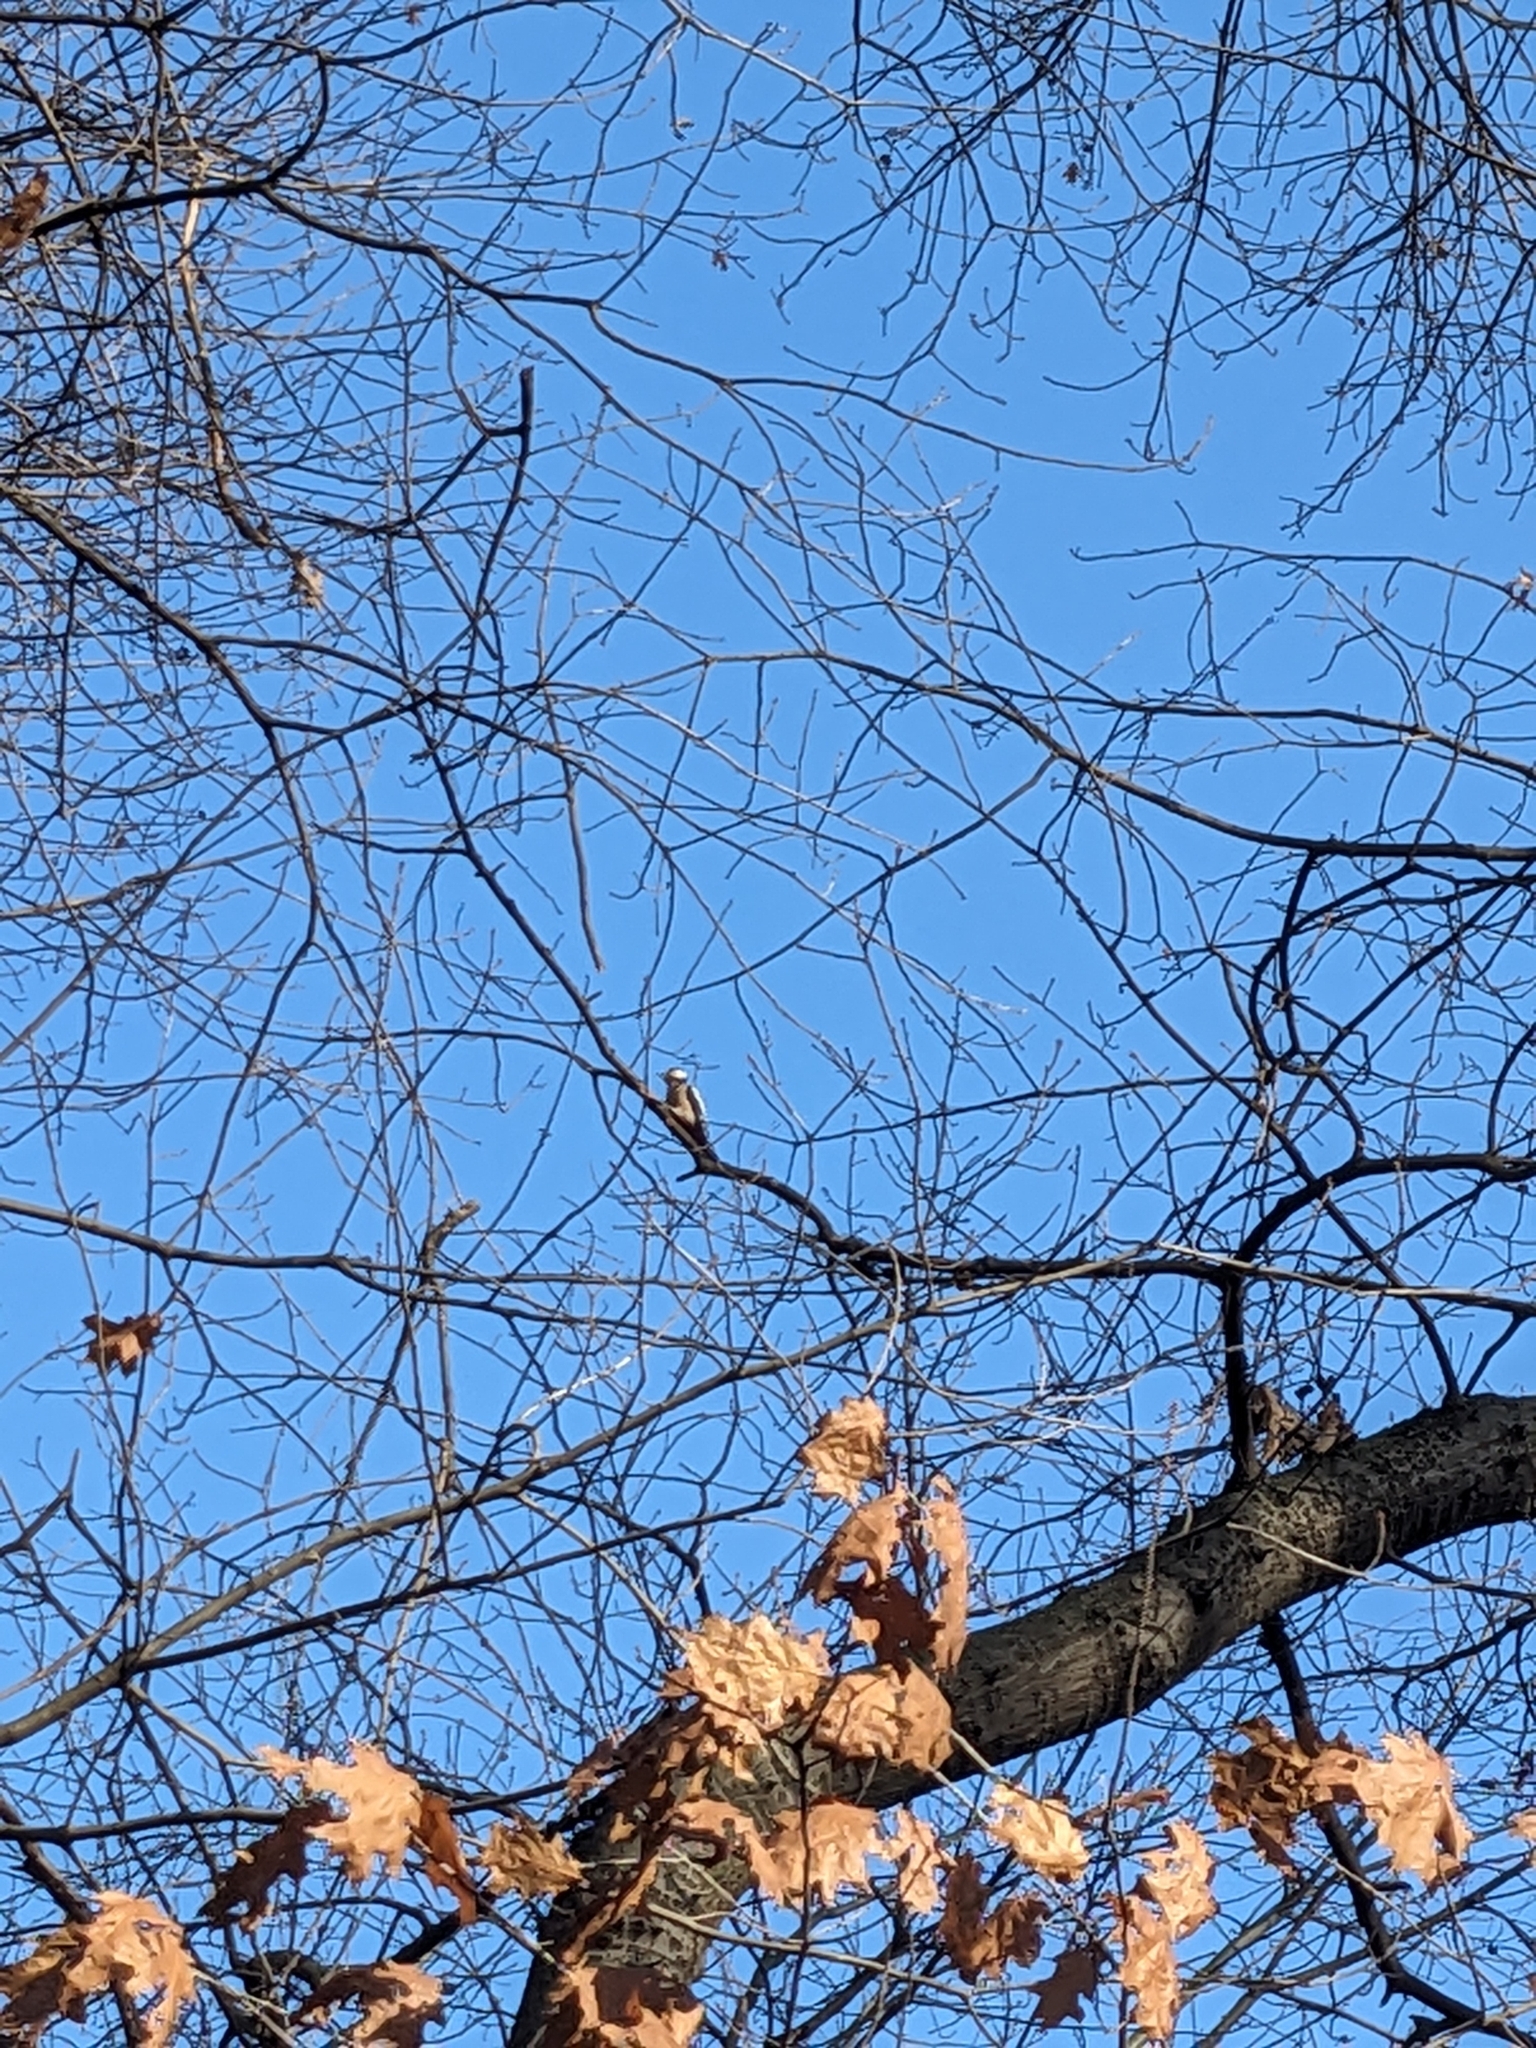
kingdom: Animalia
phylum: Chordata
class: Aves
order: Piciformes
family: Picidae
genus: Dendrocopos
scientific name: Dendrocopos major
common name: Great spotted woodpecker
